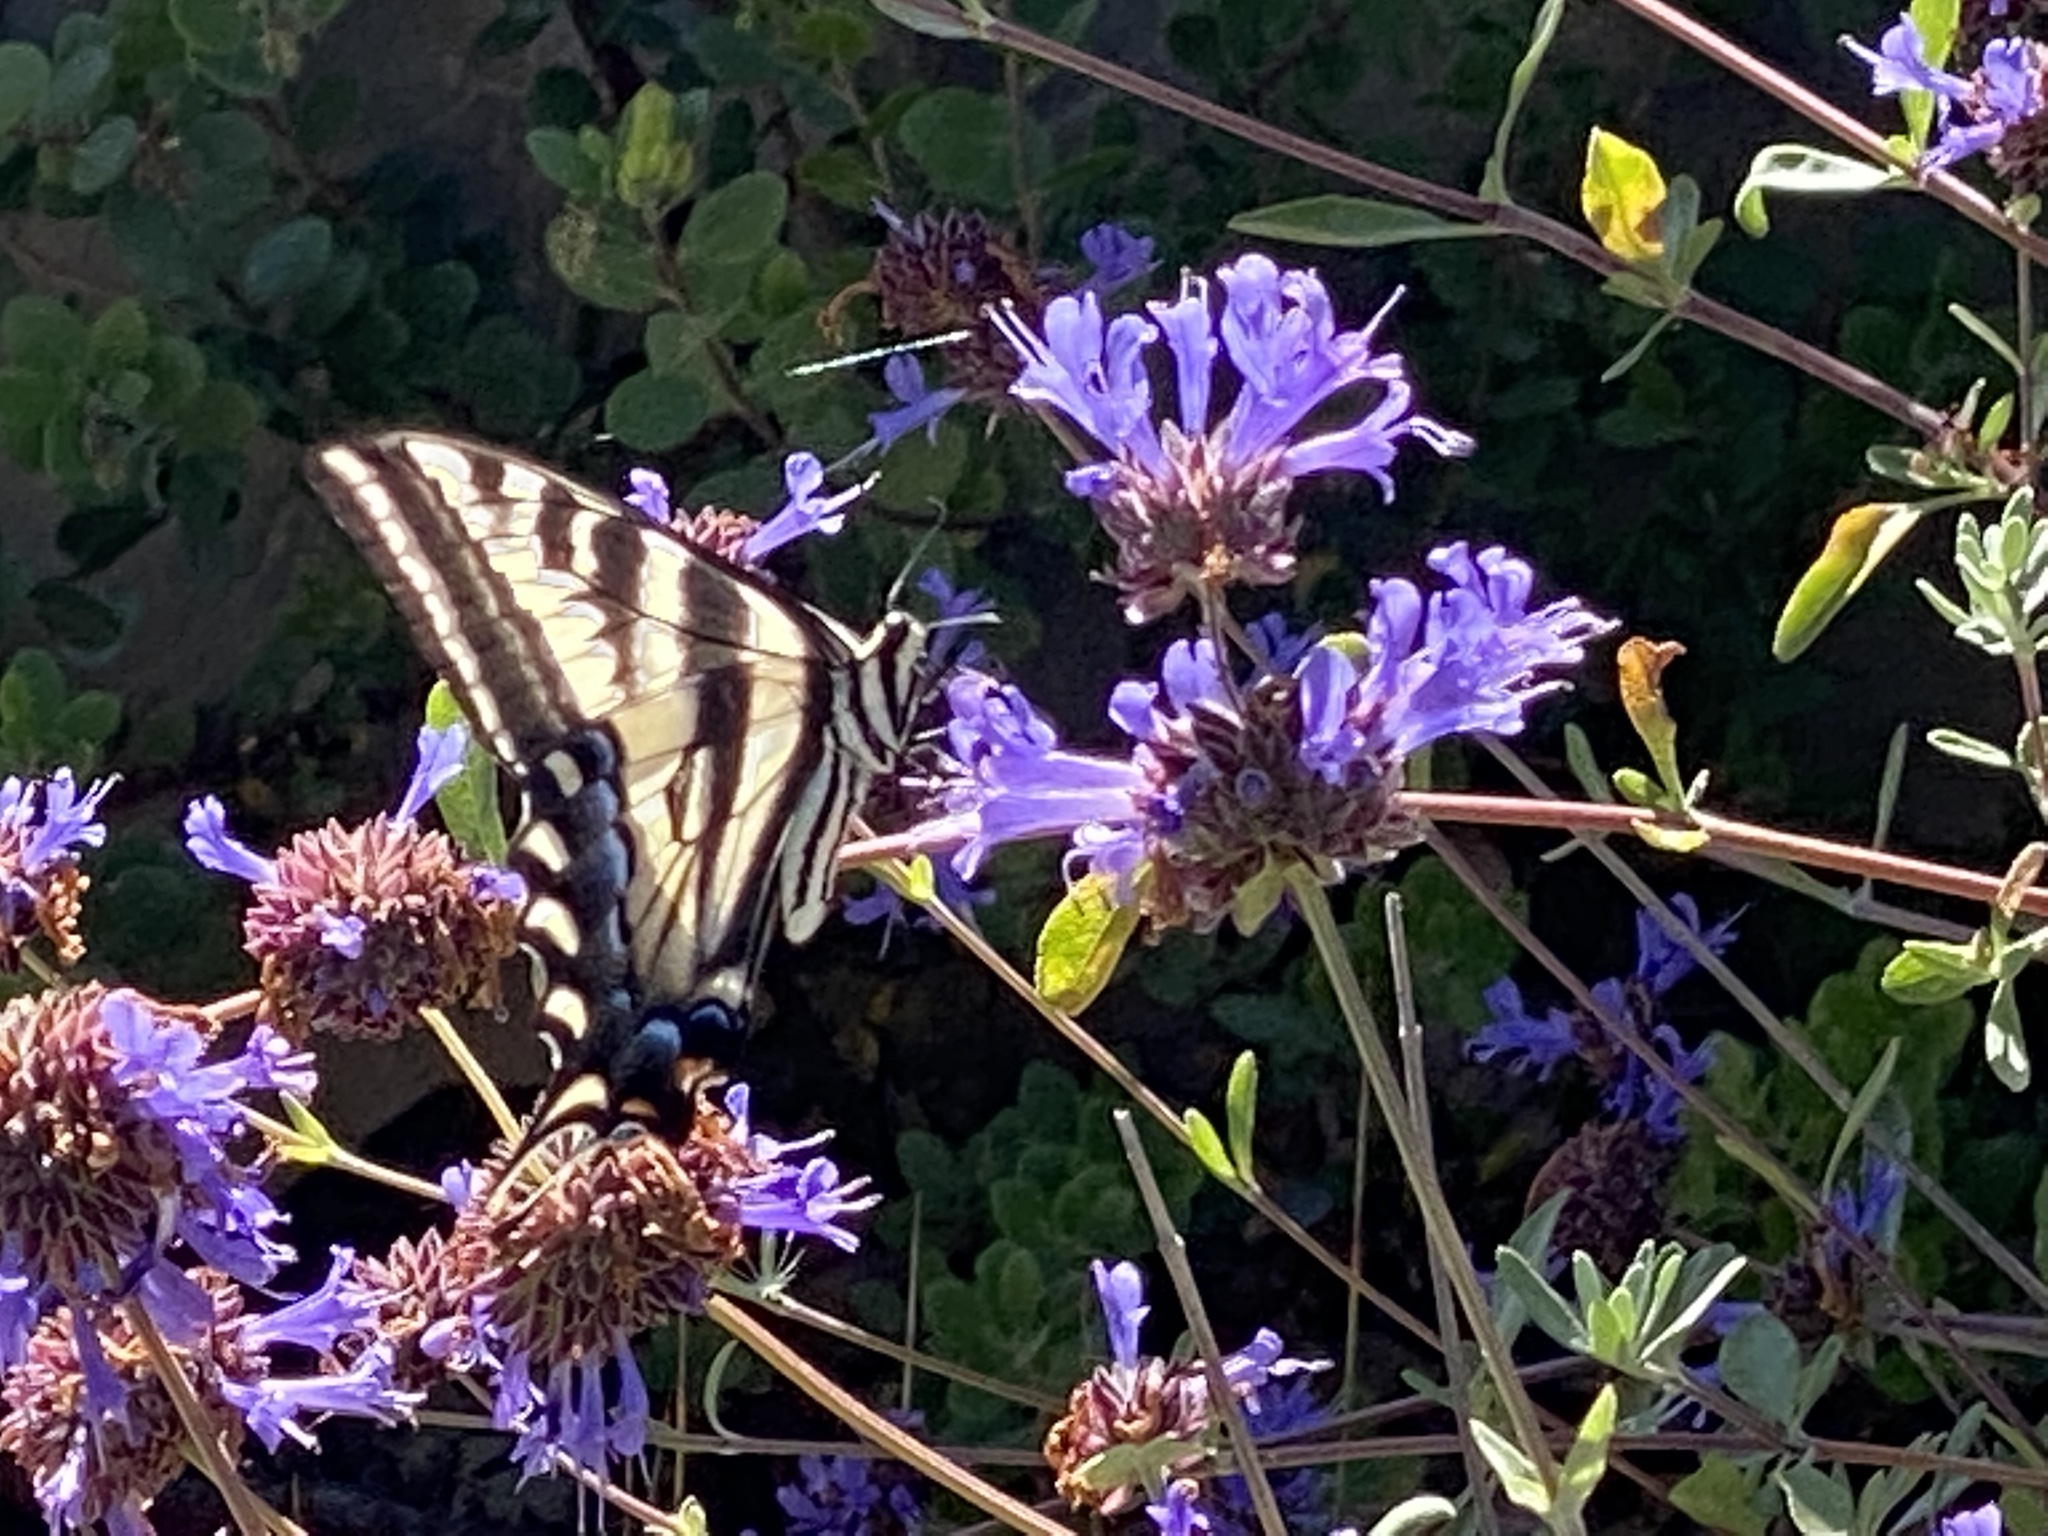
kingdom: Animalia
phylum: Arthropoda
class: Insecta
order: Lepidoptera
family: Papilionidae
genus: Papilio
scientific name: Papilio eurymedon
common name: Pale tiger swallowtail
